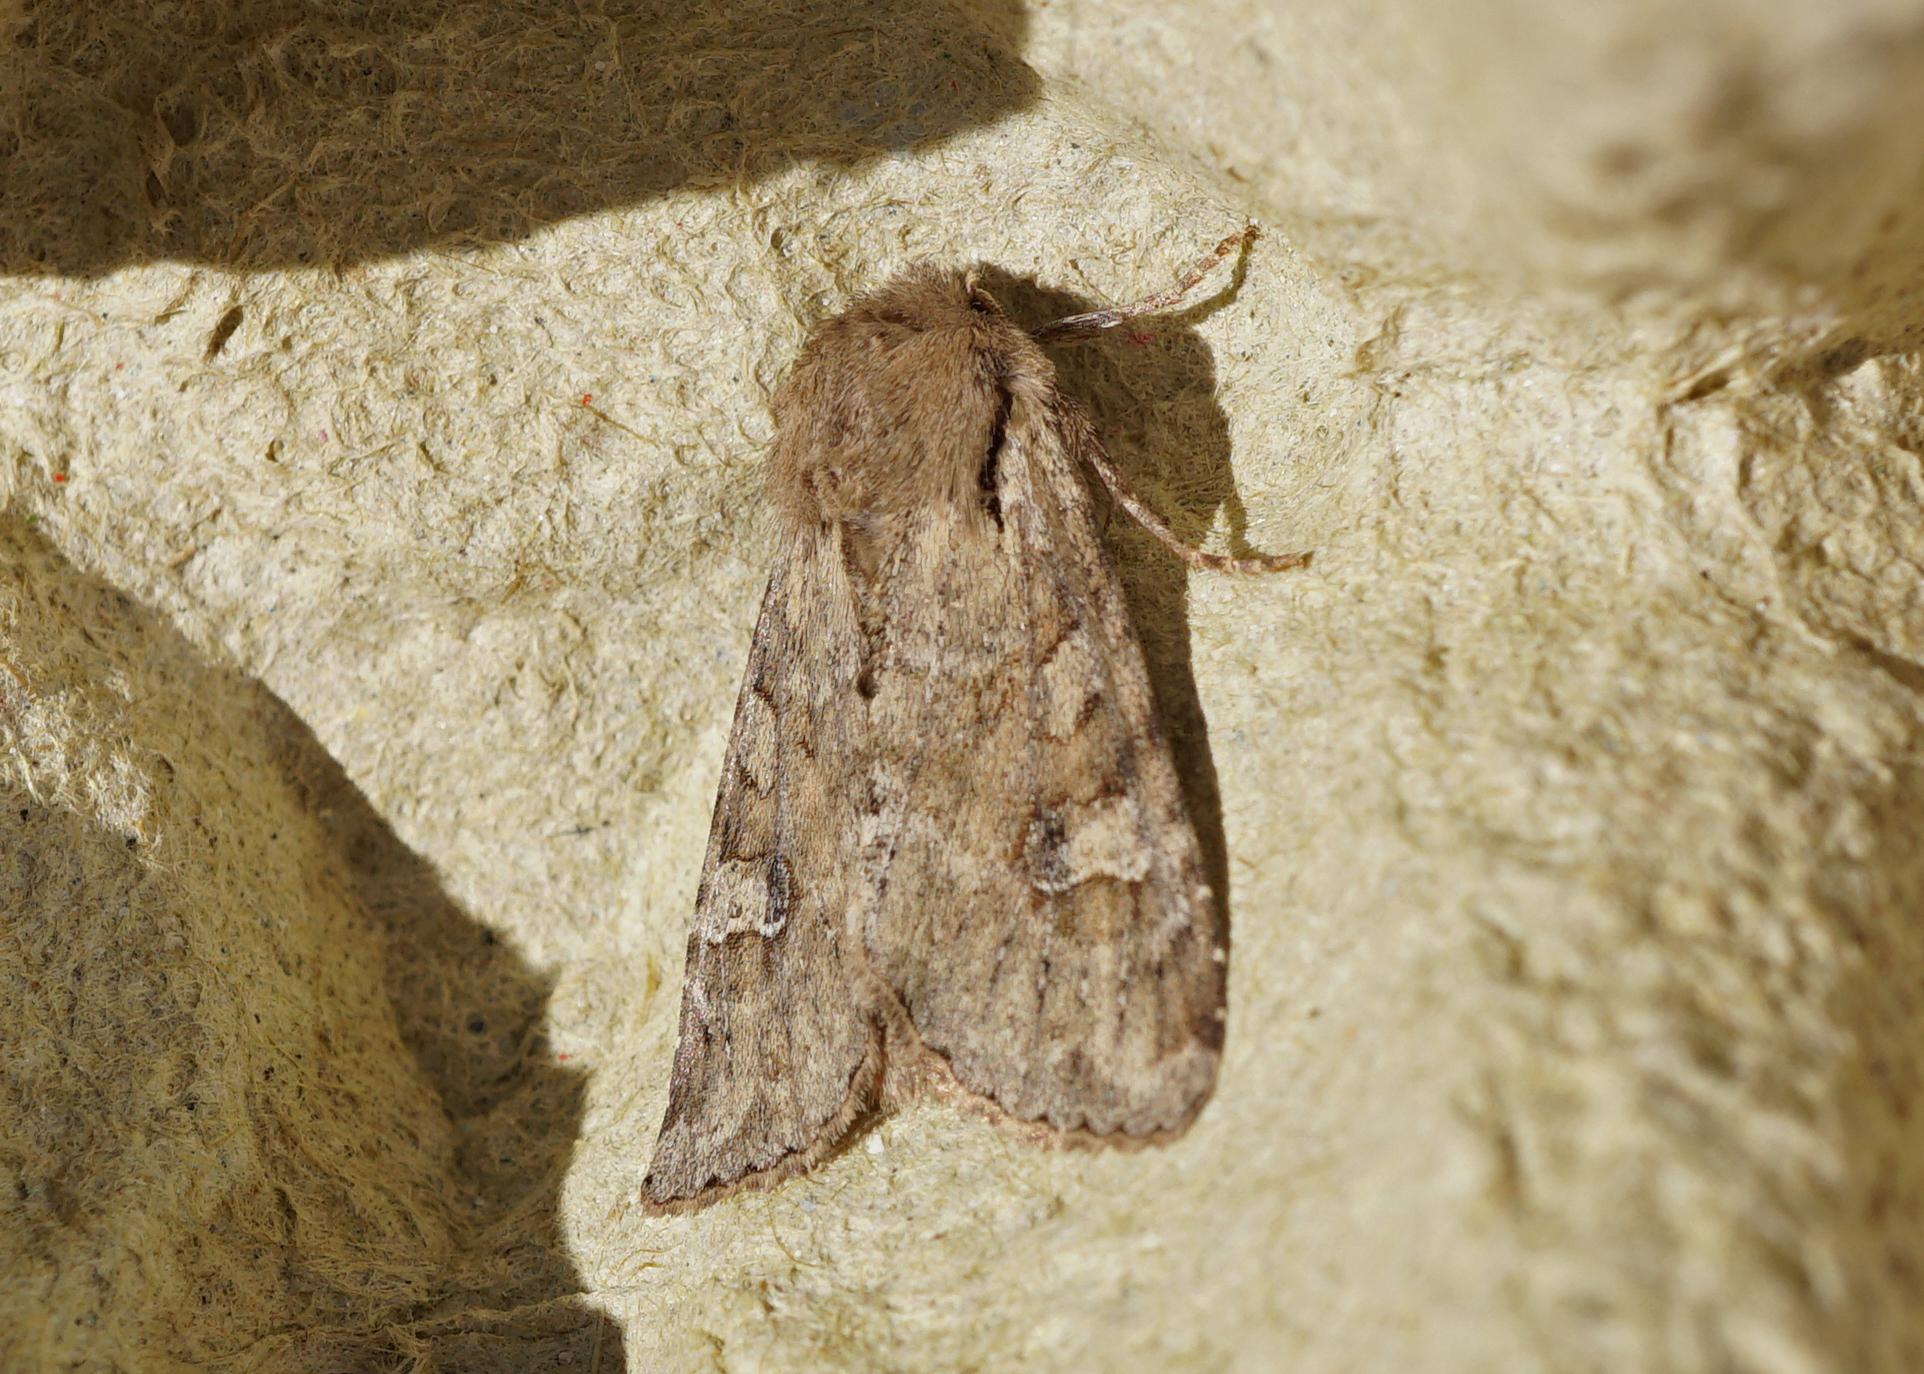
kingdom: Animalia
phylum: Arthropoda
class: Insecta
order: Lepidoptera
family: Noctuidae
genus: Apamea
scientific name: Apamea sordens
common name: Rustic shoulder-knot
